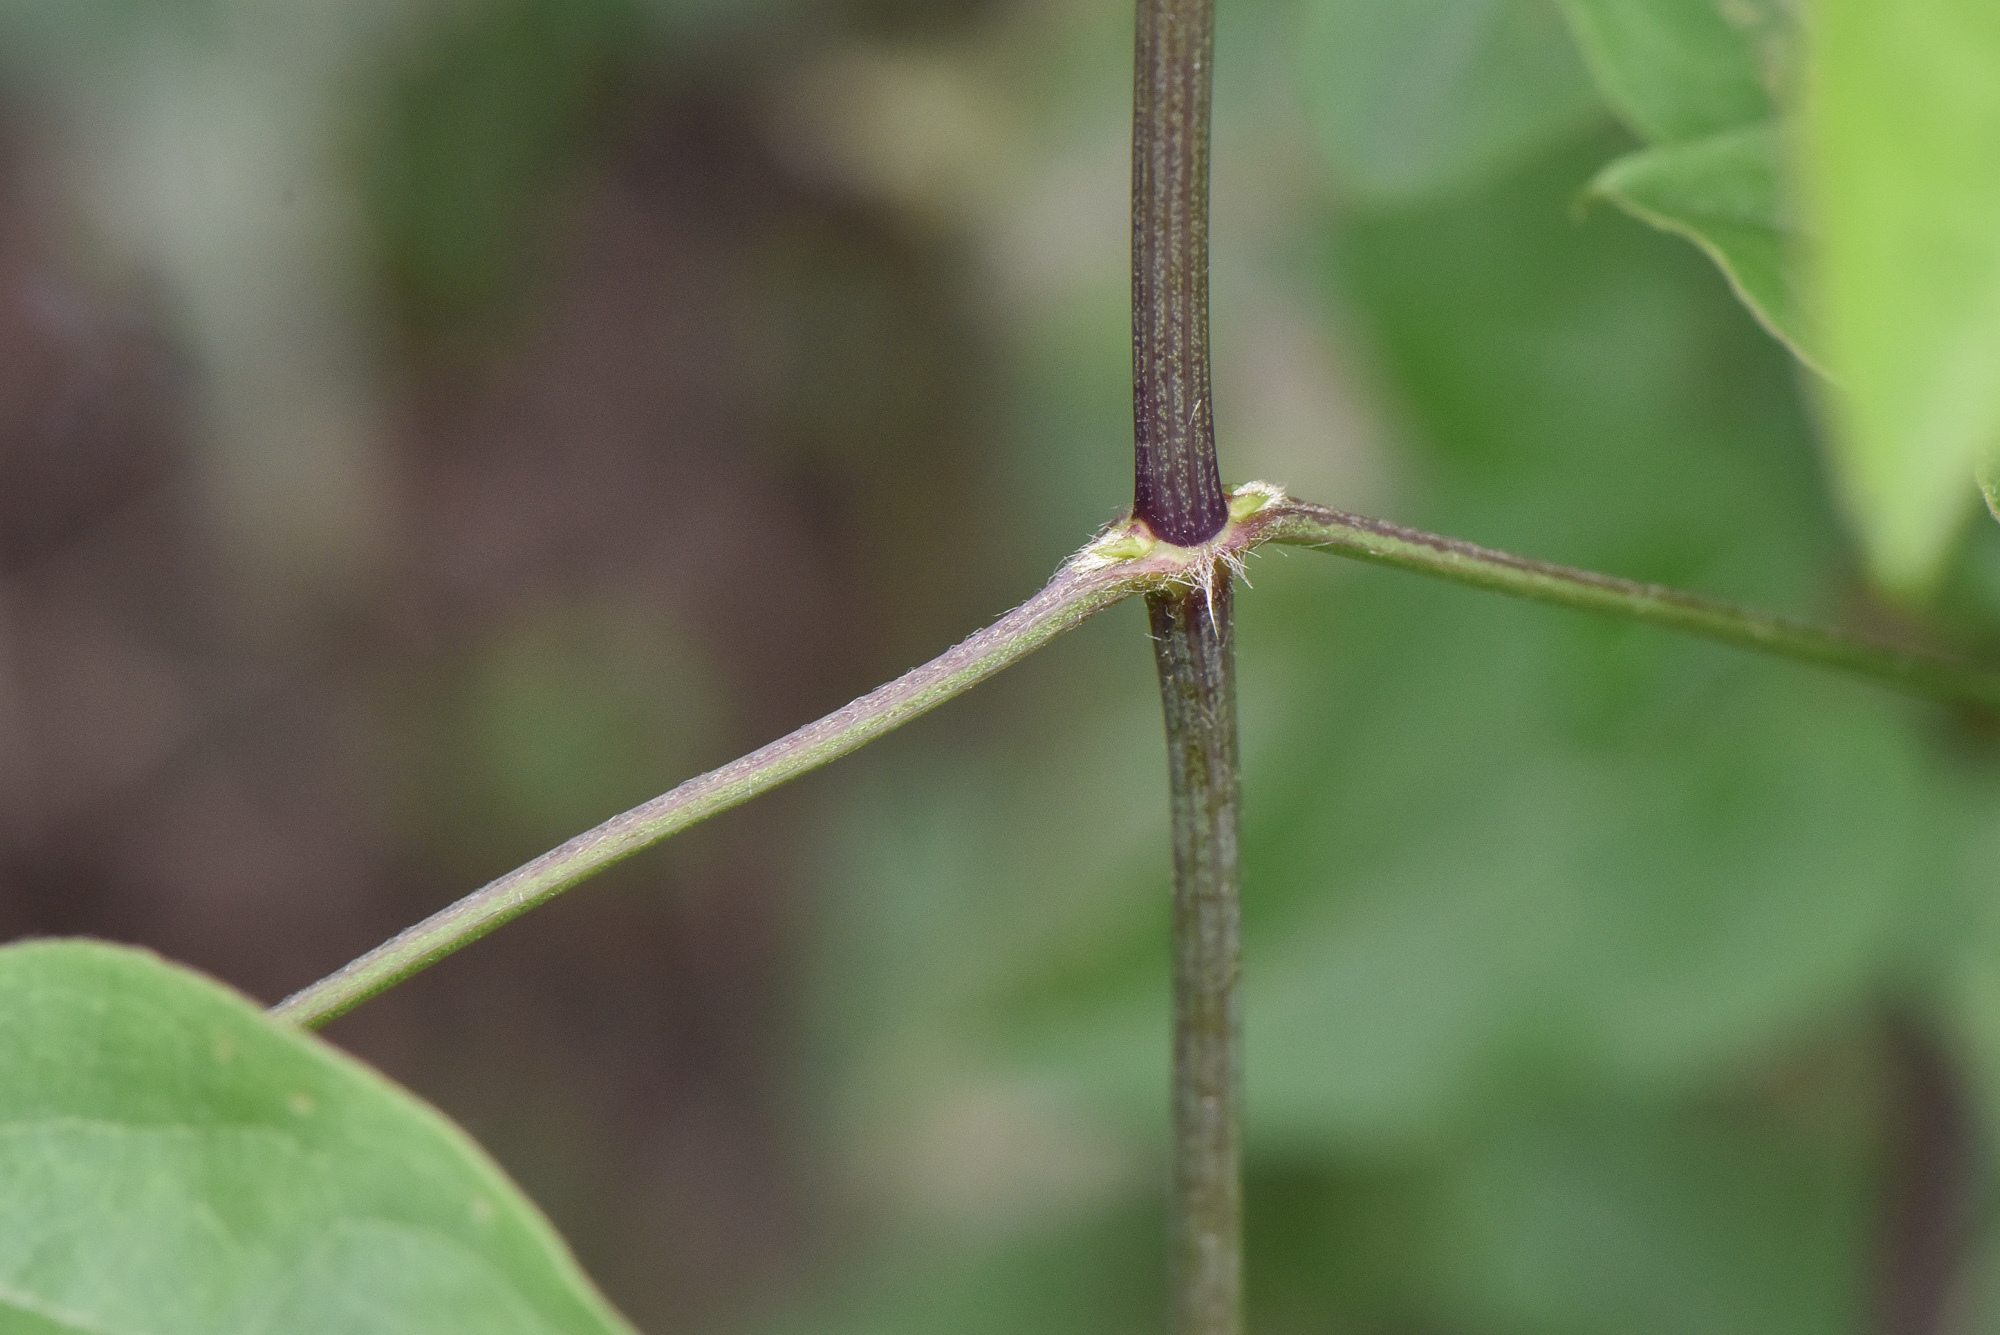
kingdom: Plantae
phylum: Tracheophyta
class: Magnoliopsida
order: Ranunculales
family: Ranunculaceae
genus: Clematis
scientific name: Clematis chinensis
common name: Chinese clematis
